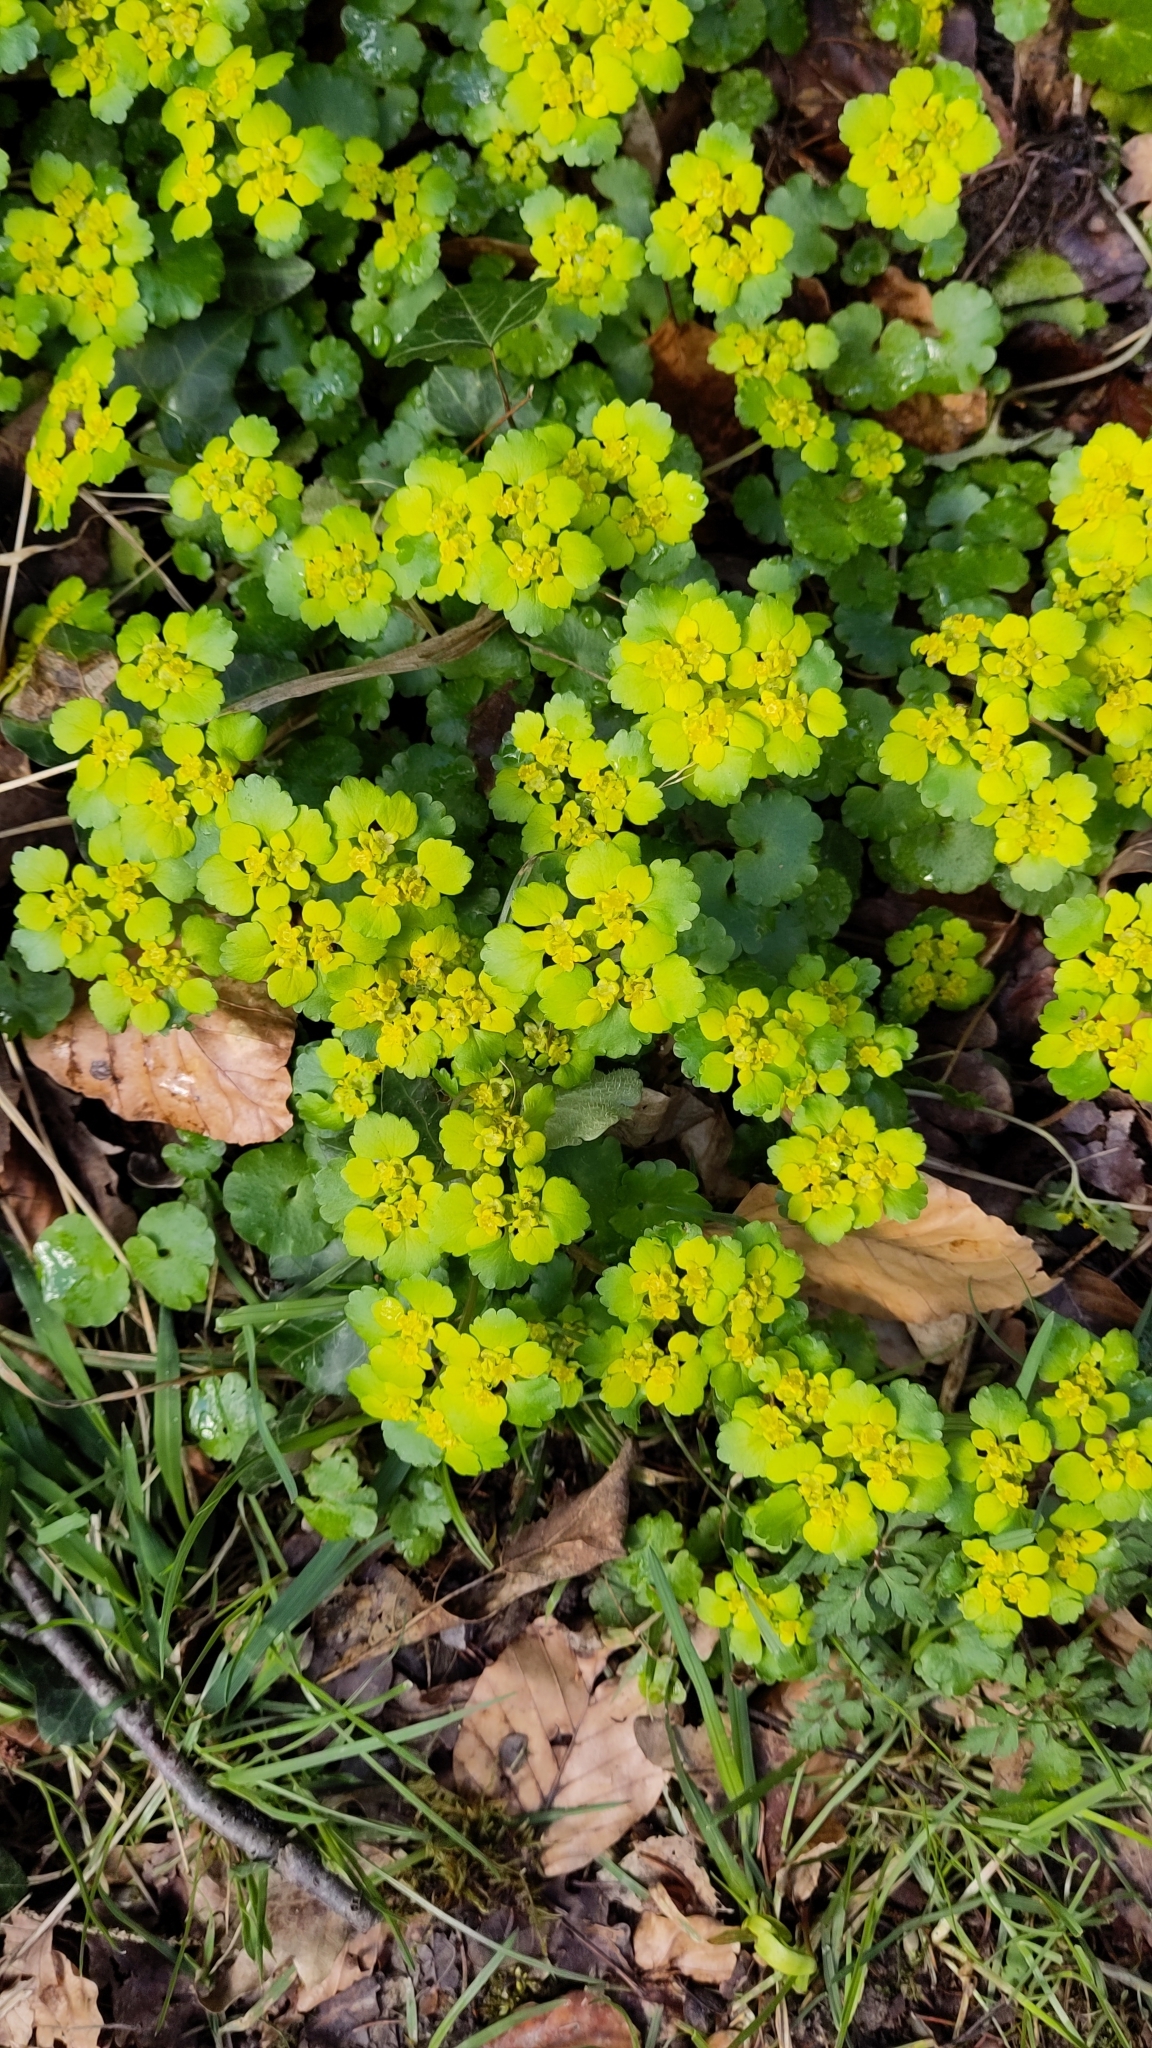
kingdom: Plantae
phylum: Tracheophyta
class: Magnoliopsida
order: Saxifragales
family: Saxifragaceae
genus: Chrysosplenium
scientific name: Chrysosplenium alternifolium
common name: Alternate-leaved golden-saxifrage
